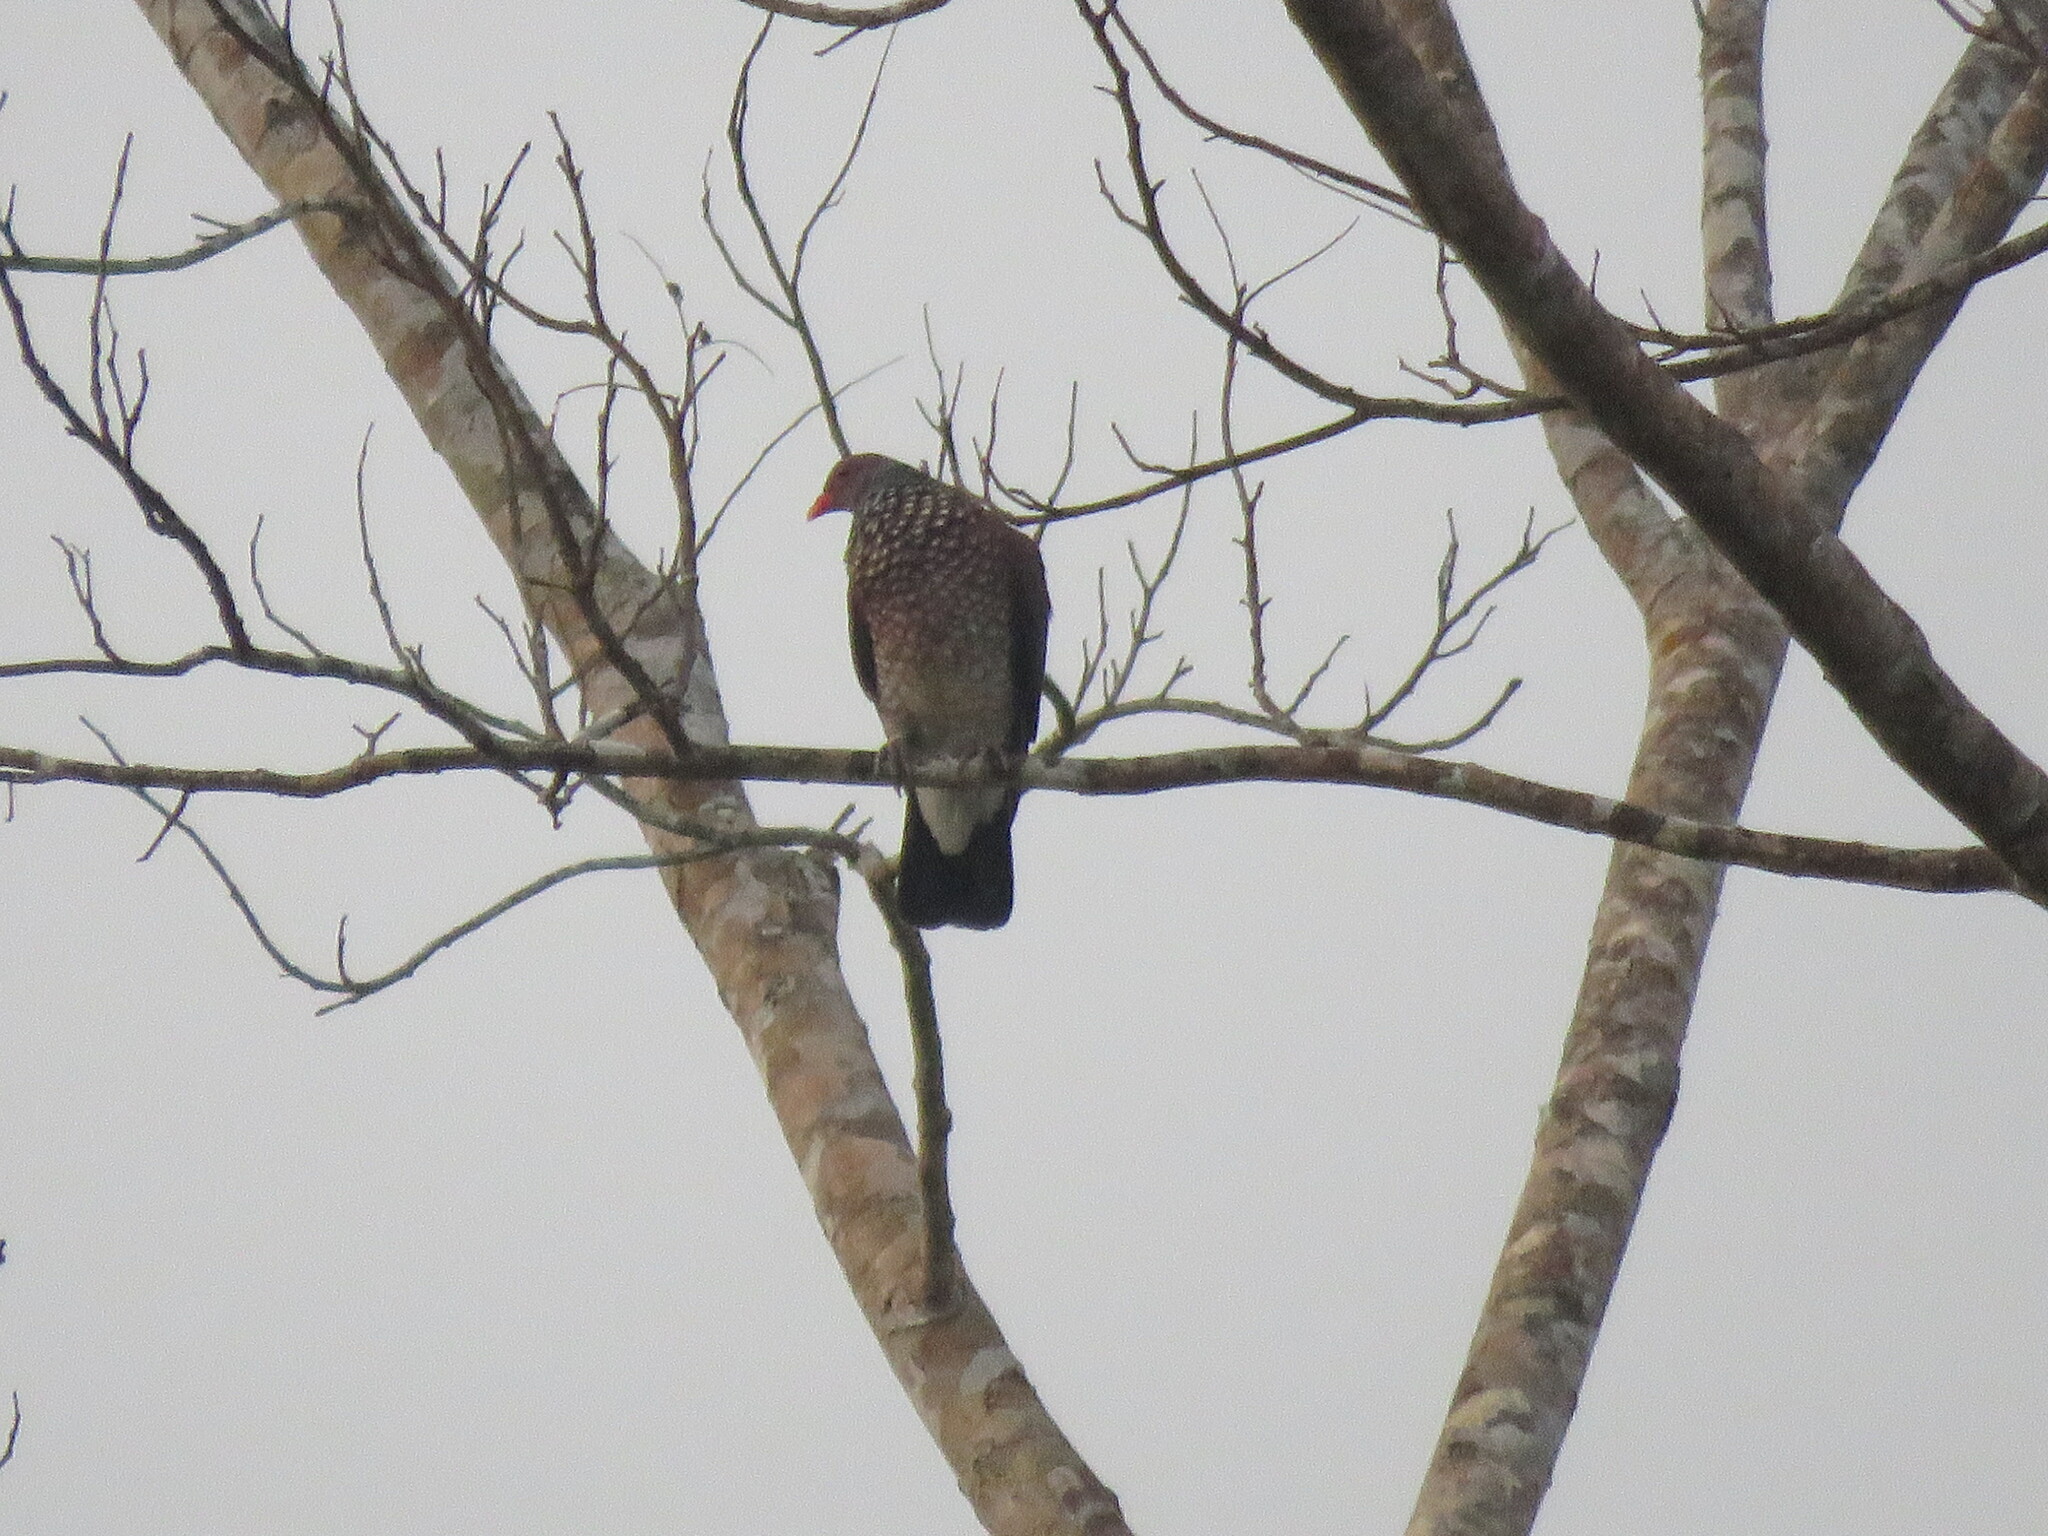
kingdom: Animalia
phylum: Chordata
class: Aves
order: Columbiformes
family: Columbidae
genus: Patagioenas
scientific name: Patagioenas speciosa
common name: Scaled pigeon
